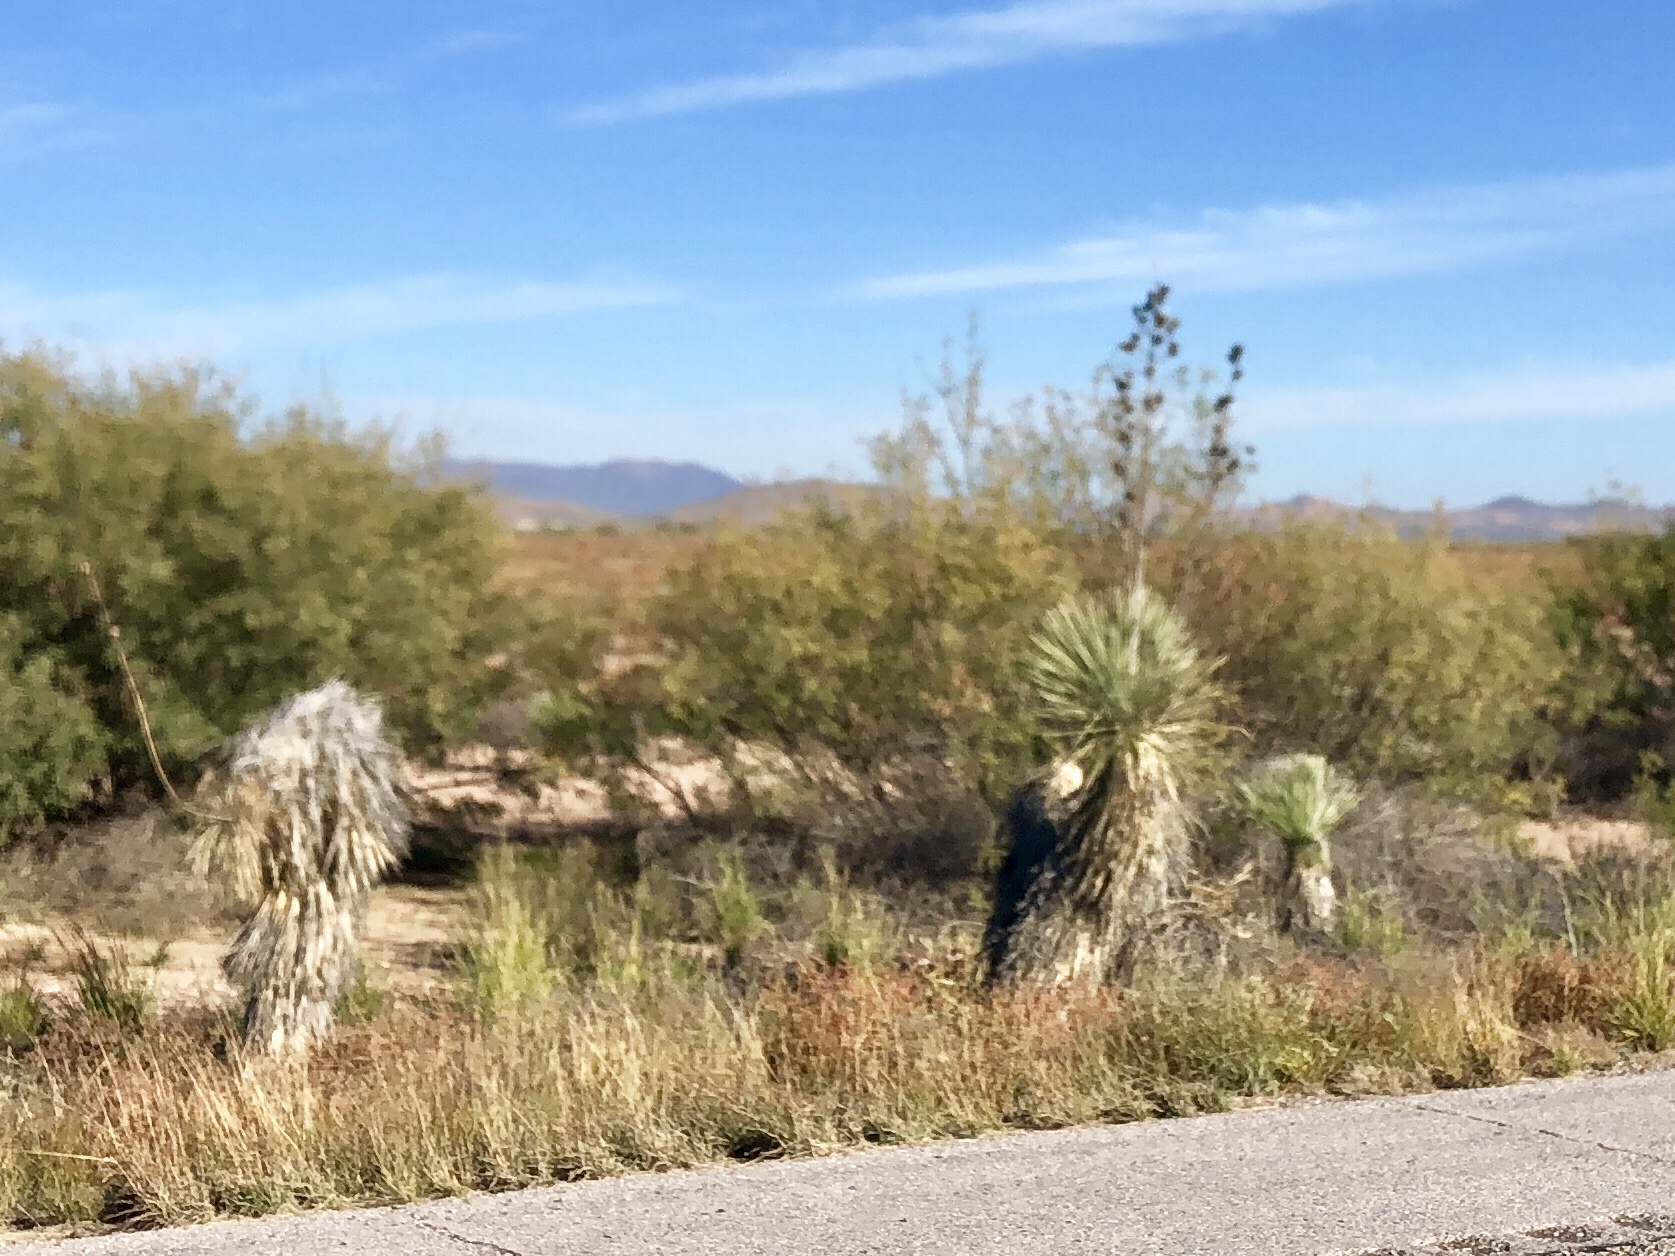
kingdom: Plantae
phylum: Tracheophyta
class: Liliopsida
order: Asparagales
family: Asparagaceae
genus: Yucca
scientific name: Yucca elata
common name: Palmella
